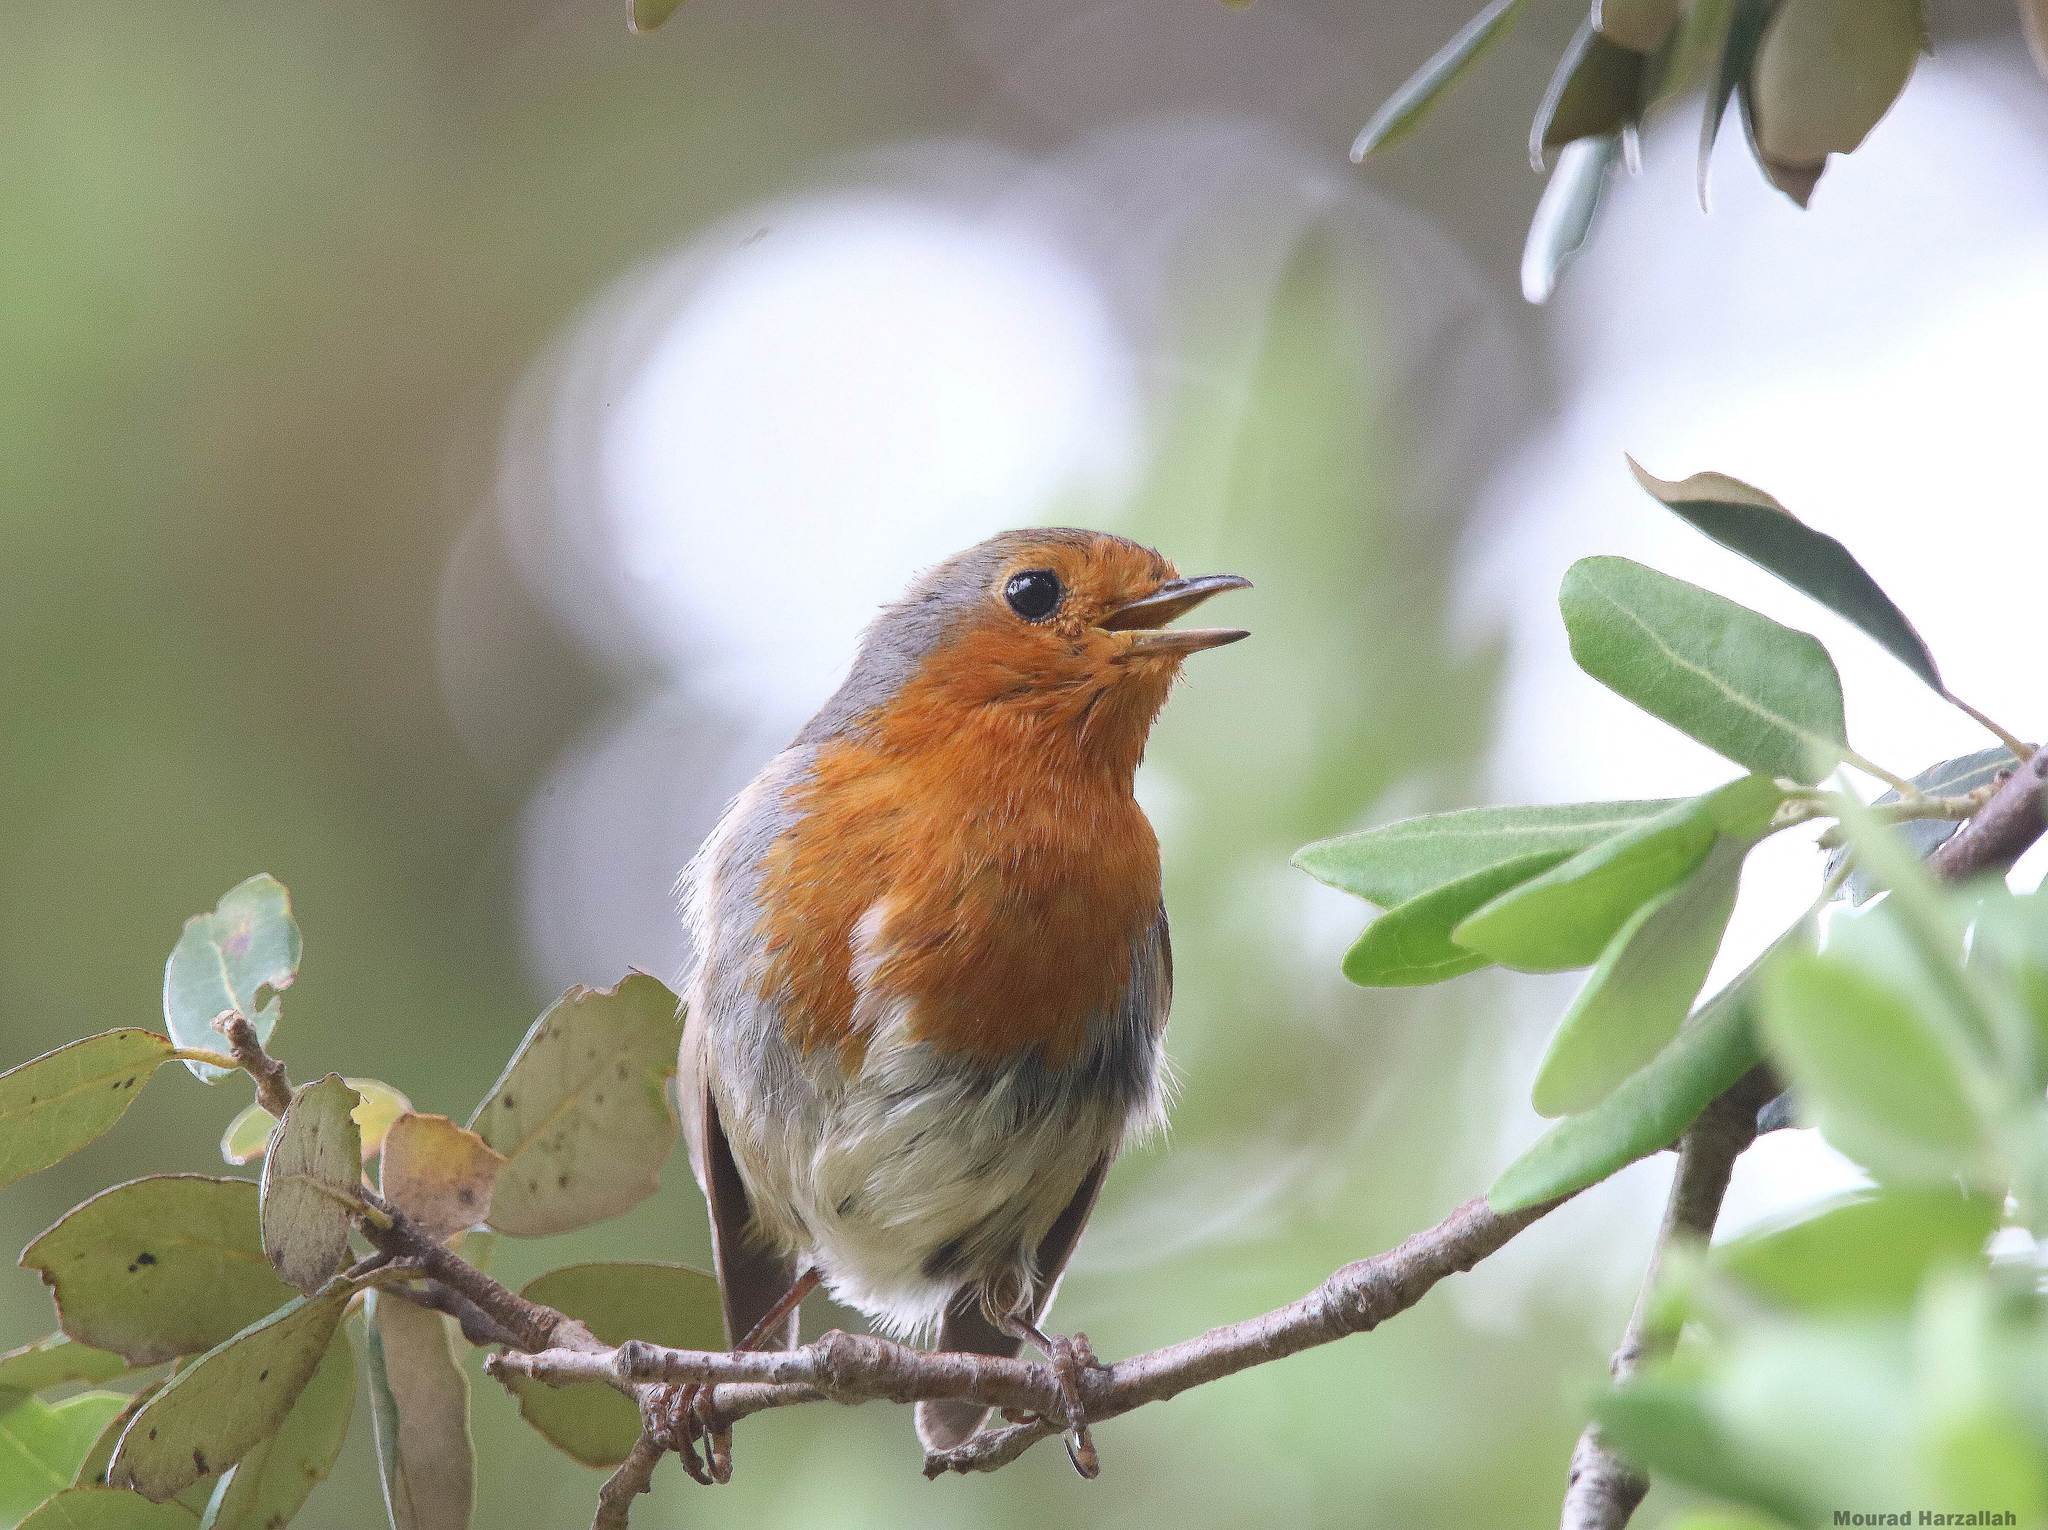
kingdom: Animalia
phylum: Chordata
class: Aves
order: Passeriformes
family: Muscicapidae
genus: Erithacus
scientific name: Erithacus rubecula
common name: European robin
